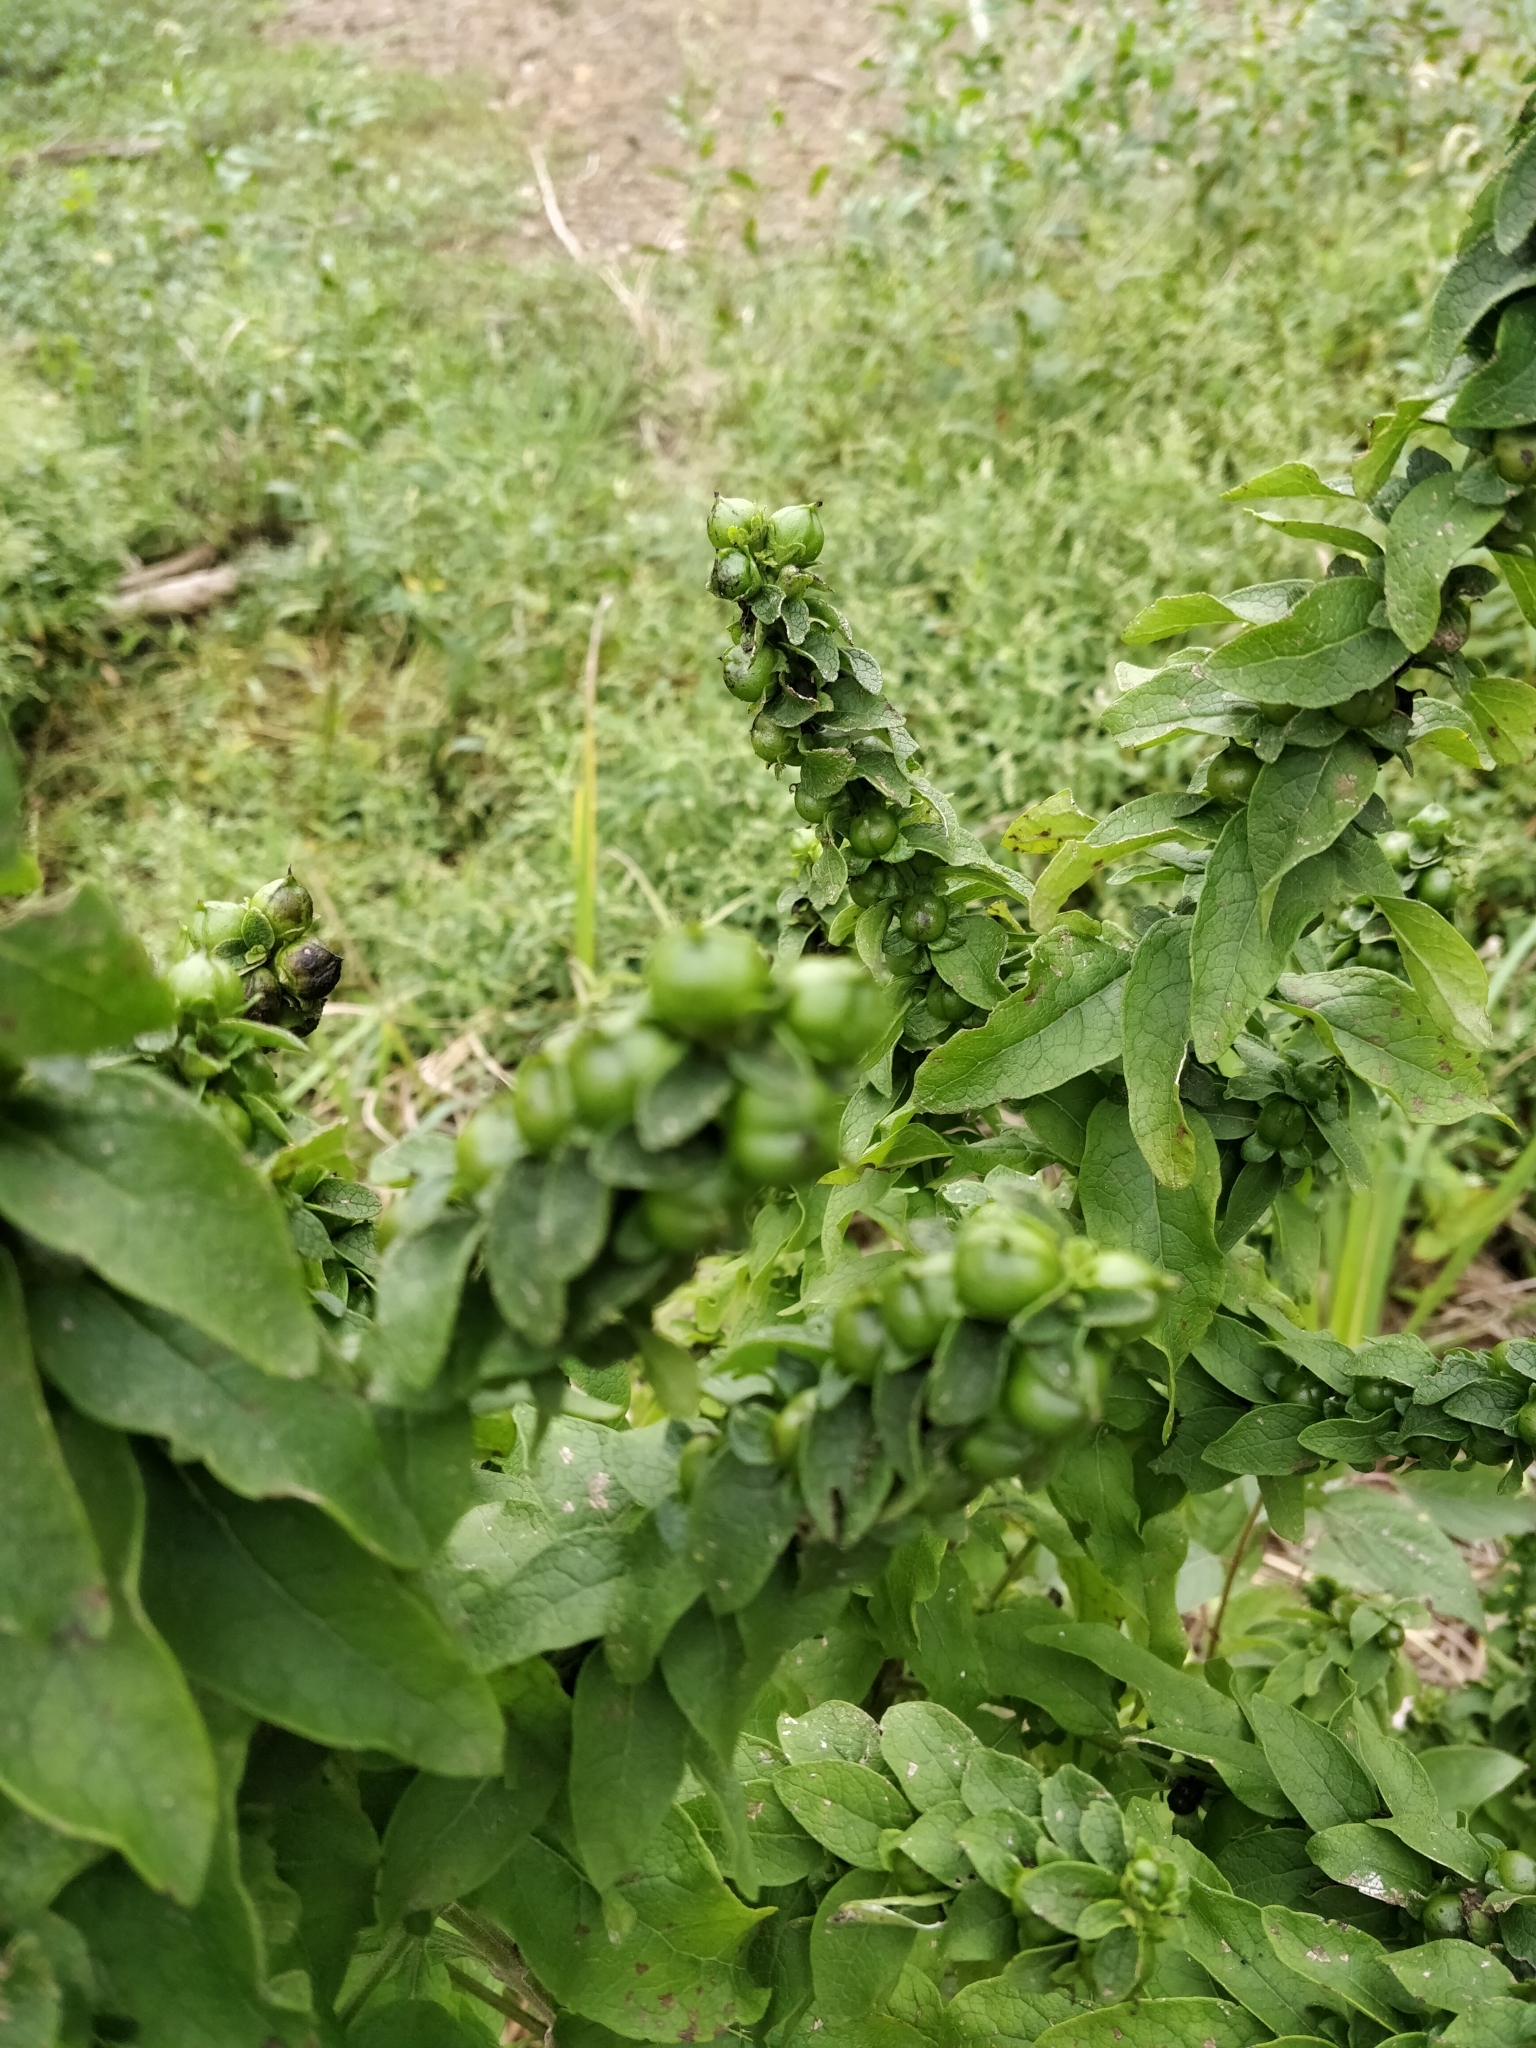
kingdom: Plantae
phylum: Tracheophyta
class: Magnoliopsida
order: Lamiales
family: Orobanchaceae
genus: Dasistoma
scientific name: Dasistoma macrophyllum
